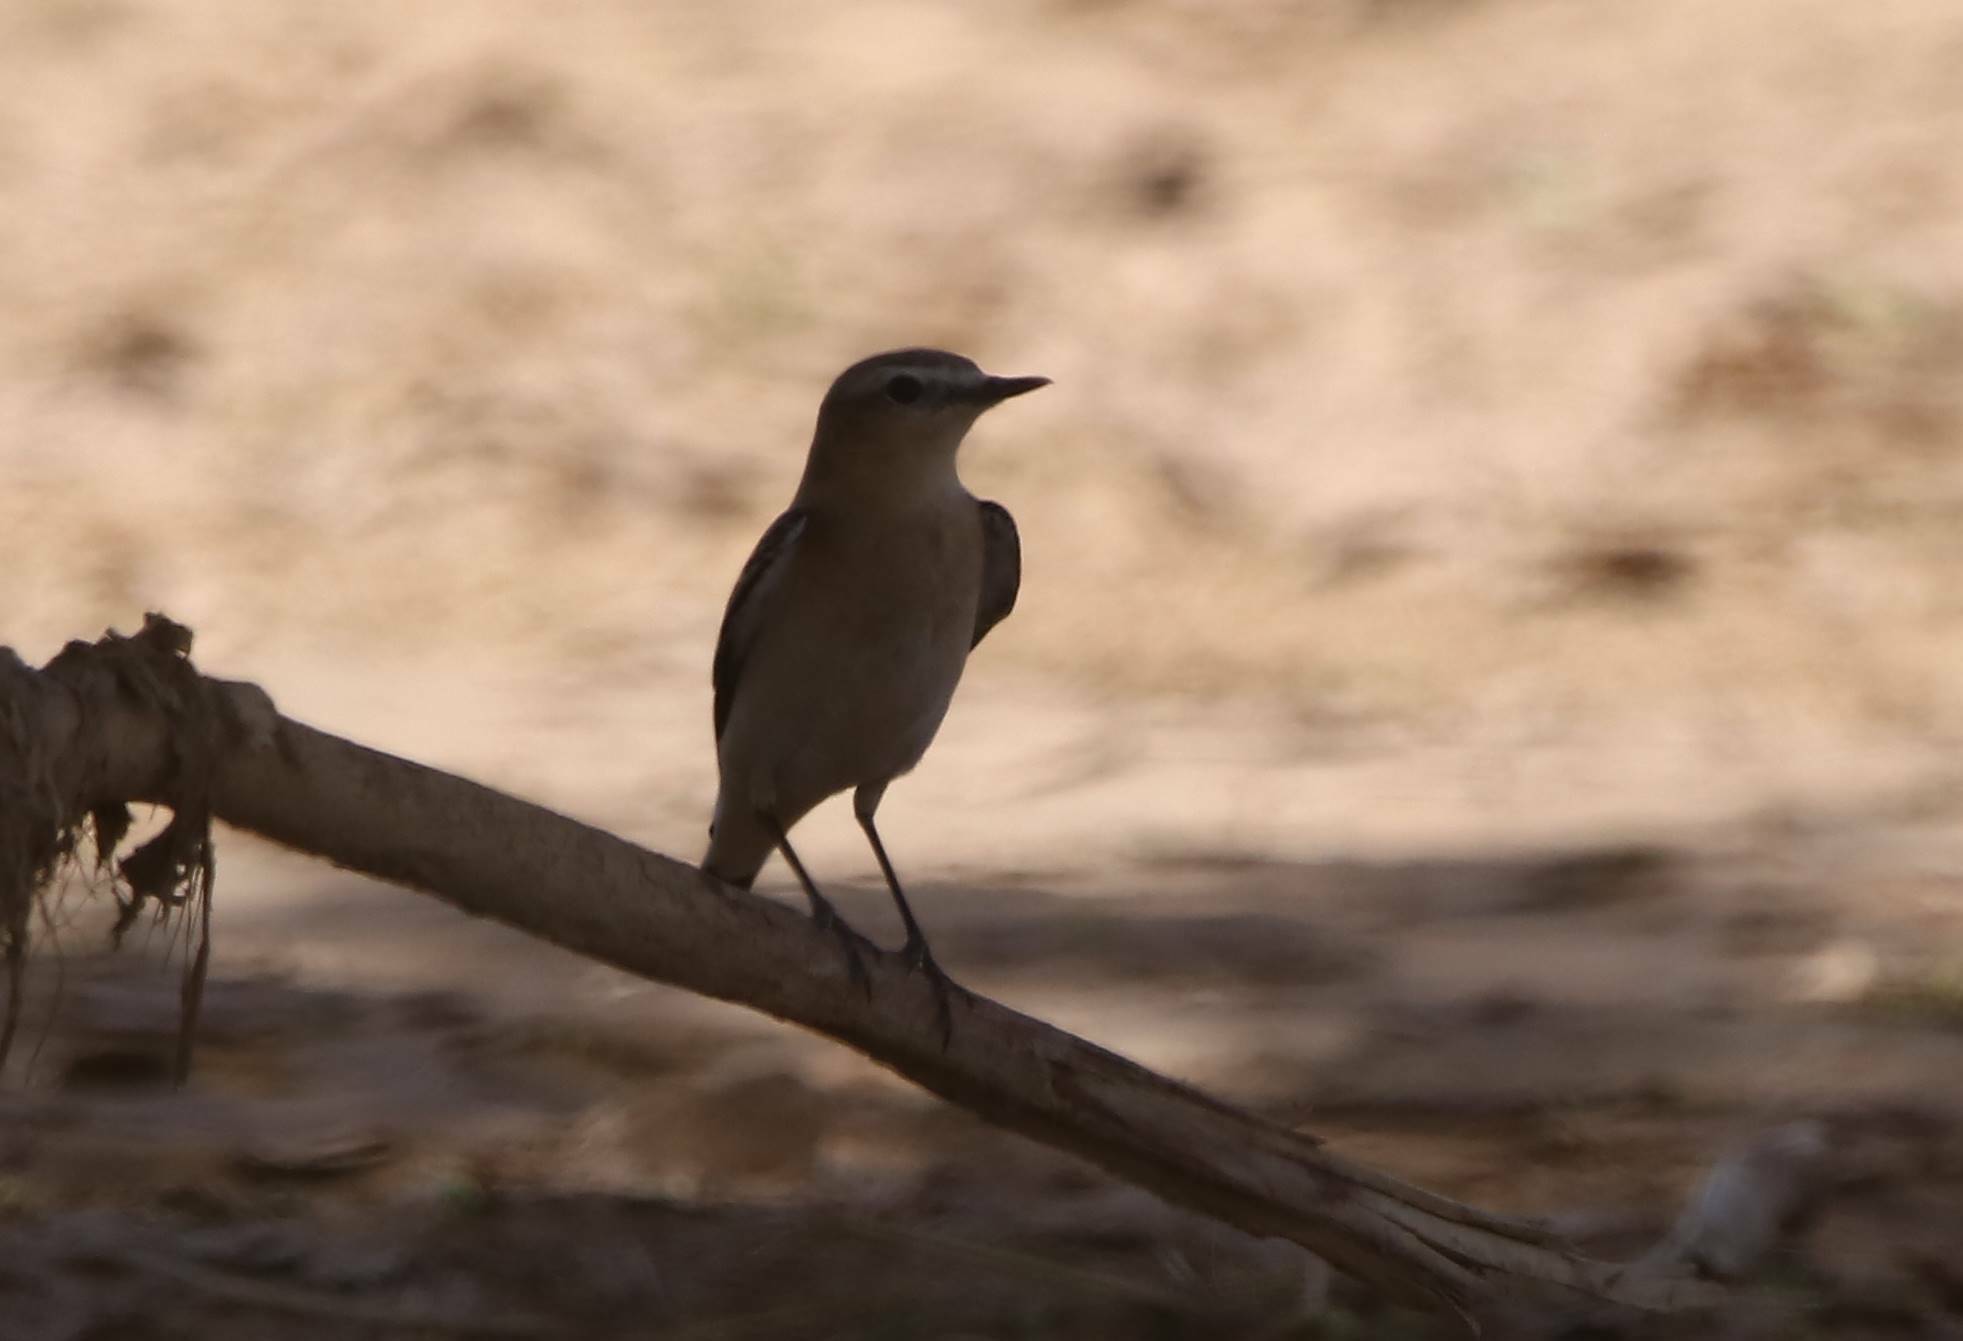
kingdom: Animalia
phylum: Chordata
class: Aves
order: Passeriformes
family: Muscicapidae
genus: Oenanthe
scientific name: Oenanthe isabellina
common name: Isabelline wheatear
